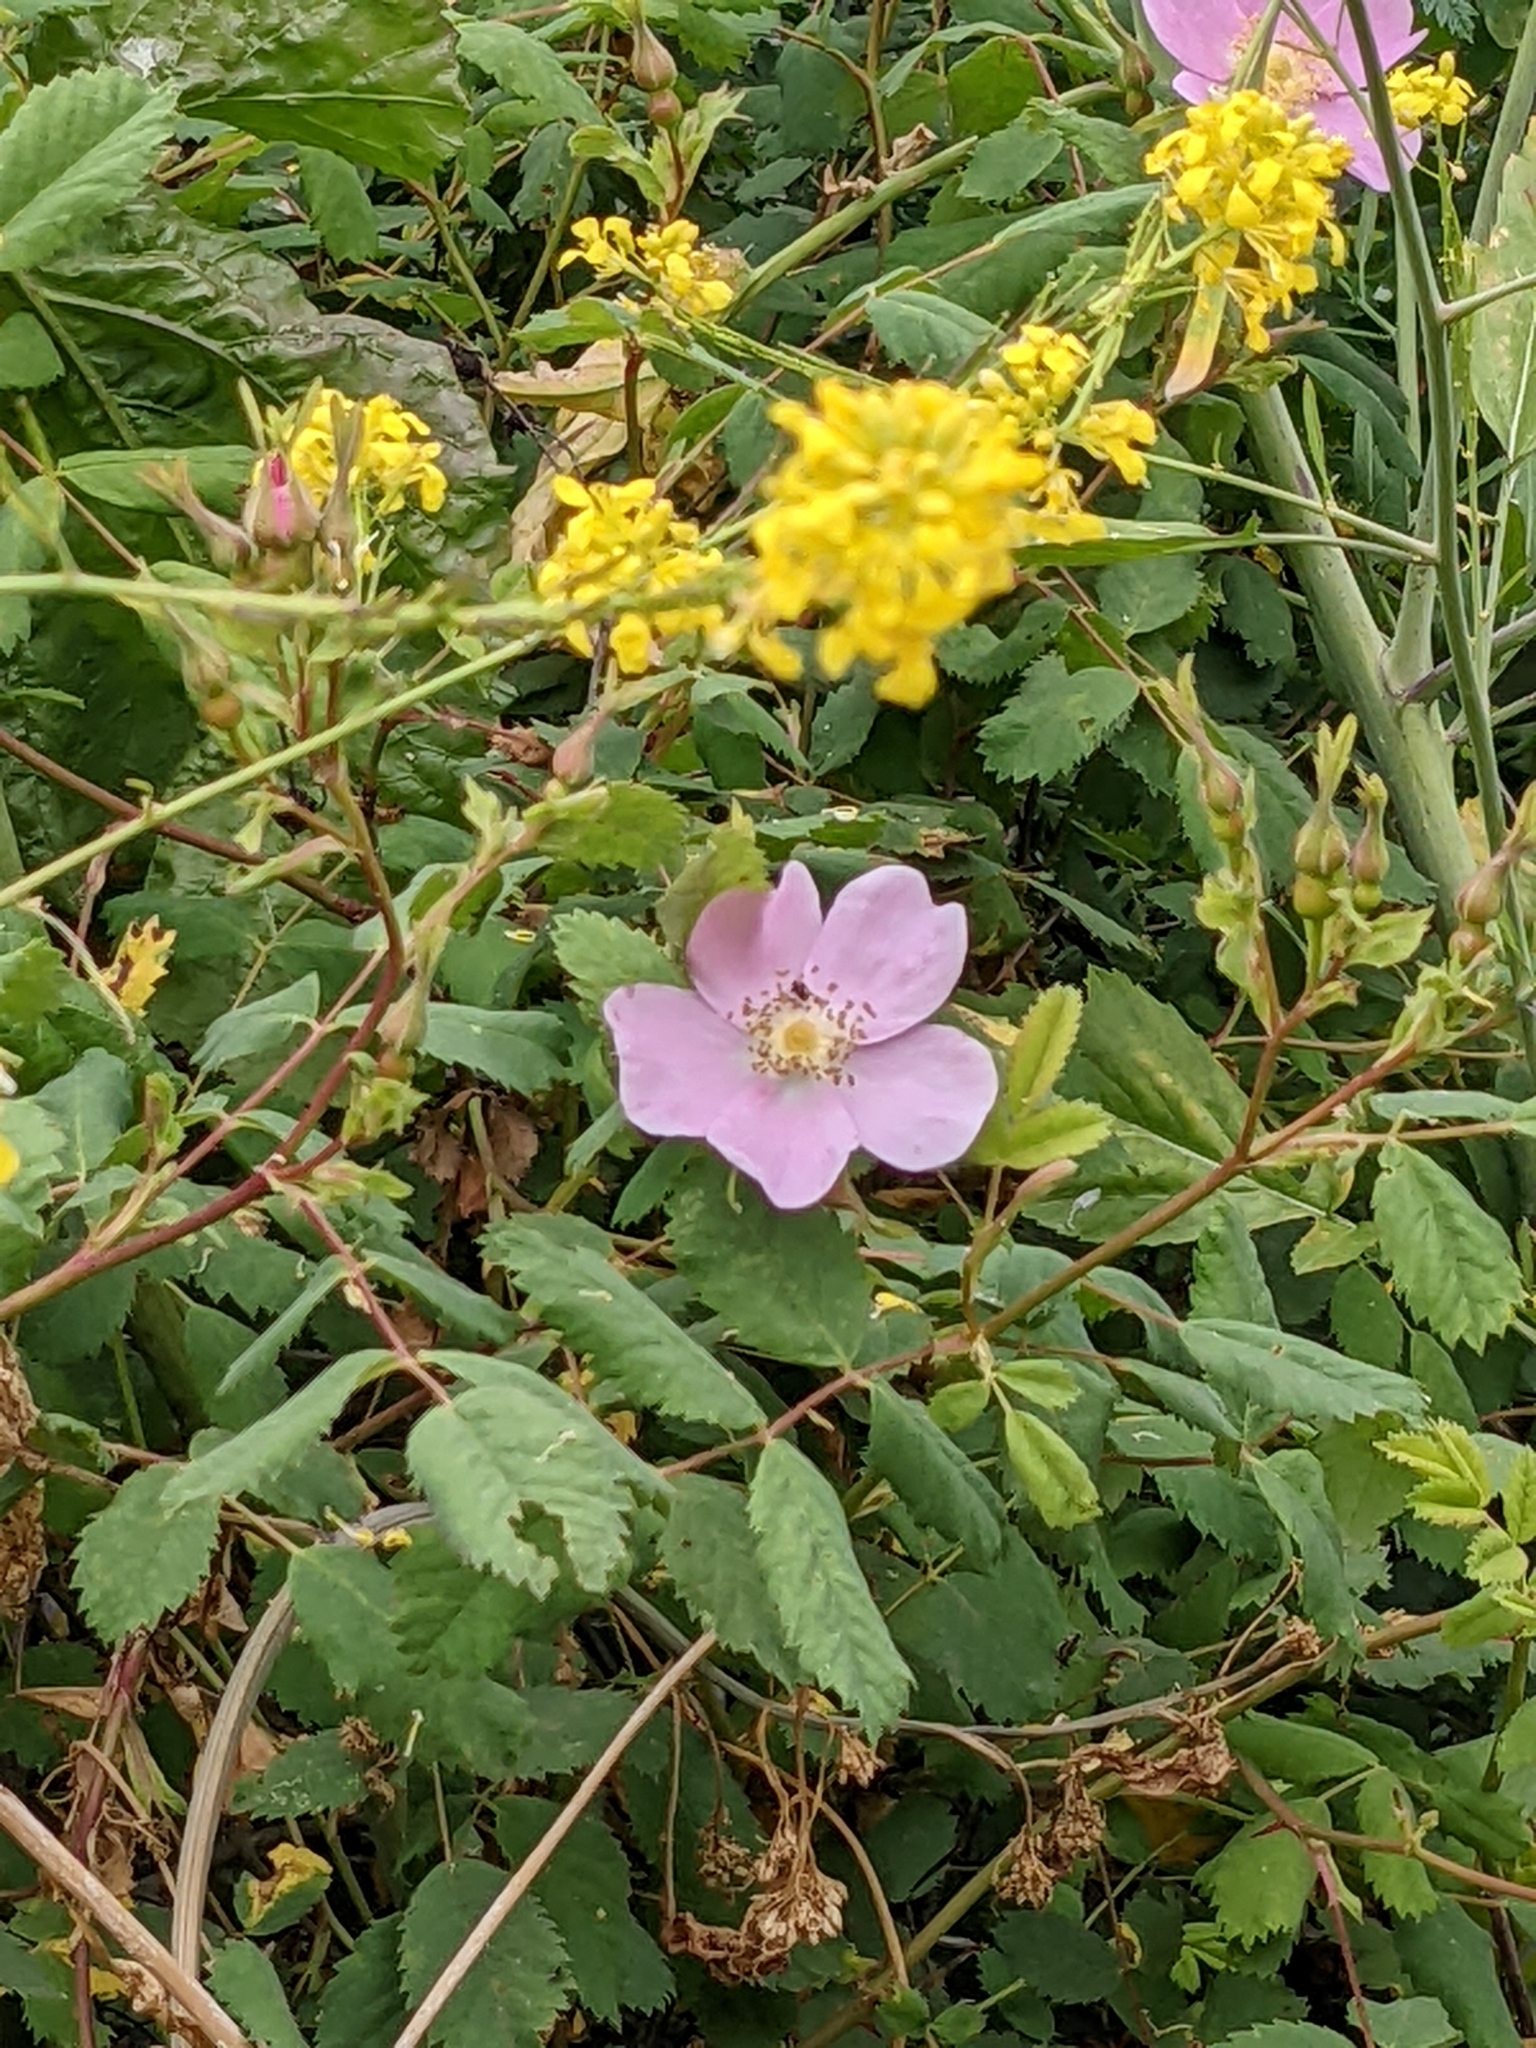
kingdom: Plantae
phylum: Tracheophyta
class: Magnoliopsida
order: Rosales
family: Rosaceae
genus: Rosa
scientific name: Rosa californica
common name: California rose
